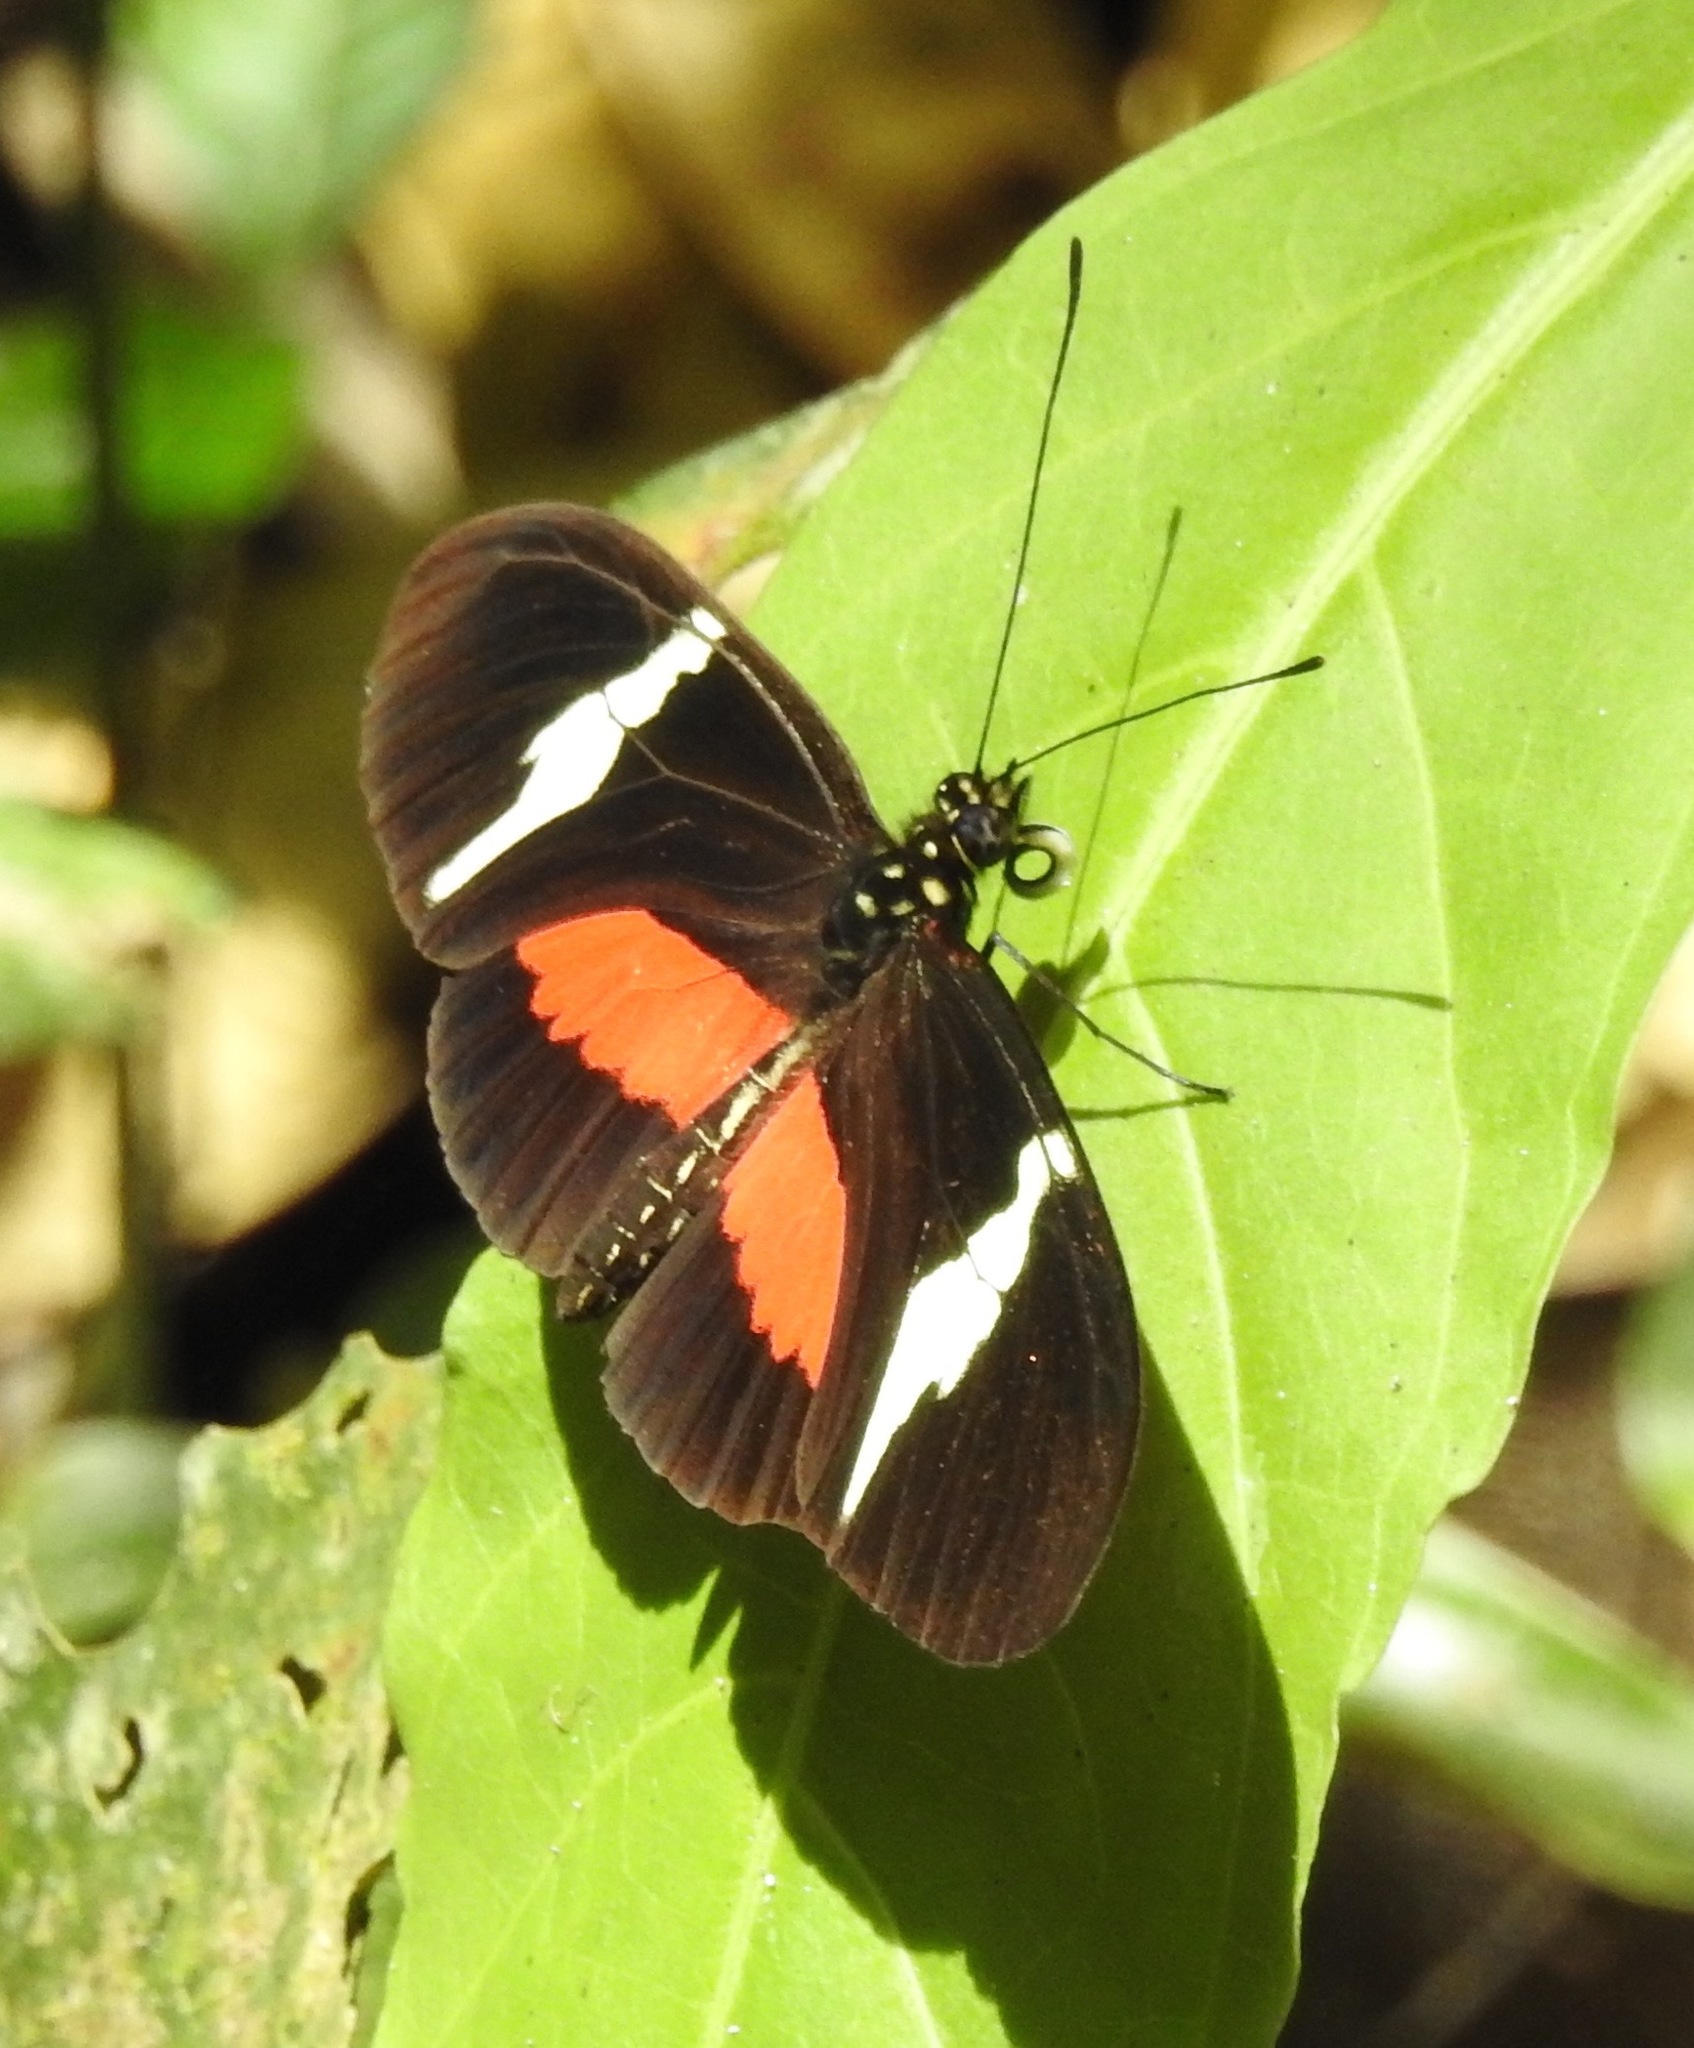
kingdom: Animalia
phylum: Arthropoda
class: Insecta
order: Lepidoptera
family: Nymphalidae
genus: Heliconius
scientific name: Heliconius clysonymus
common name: Clysonymus longwing
